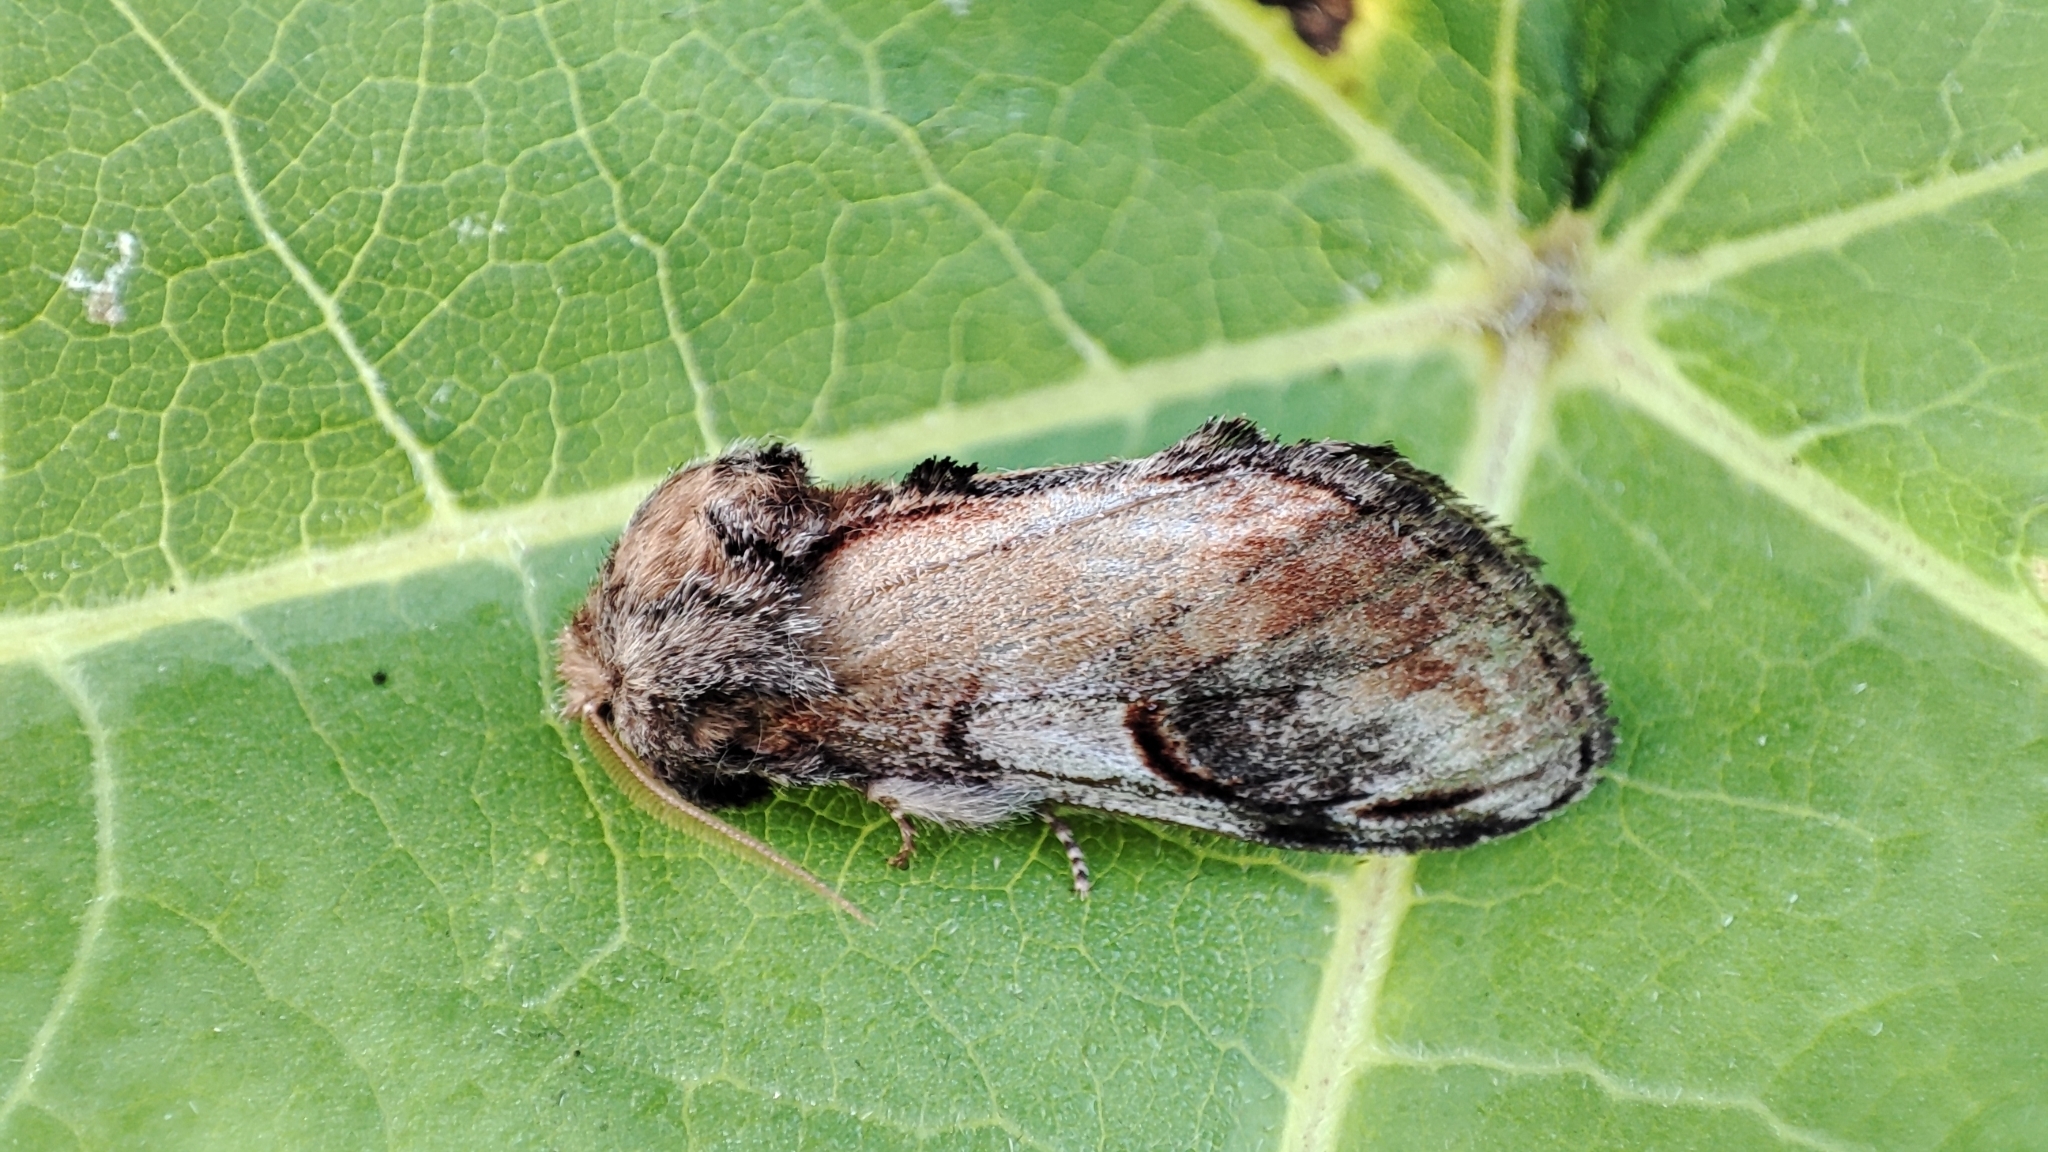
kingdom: Animalia
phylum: Arthropoda
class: Insecta
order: Lepidoptera
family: Notodontidae
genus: Notodonta
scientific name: Notodonta ziczac
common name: Pebble prominent
